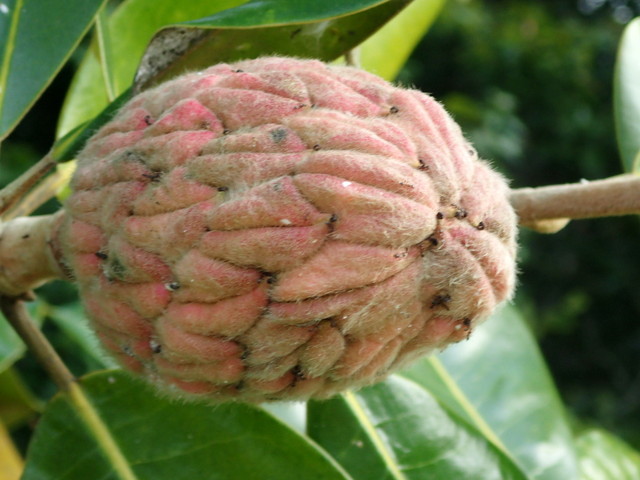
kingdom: Plantae
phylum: Tracheophyta
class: Magnoliopsida
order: Magnoliales
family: Magnoliaceae
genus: Magnolia
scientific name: Magnolia grandiflora
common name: Southern magnolia
